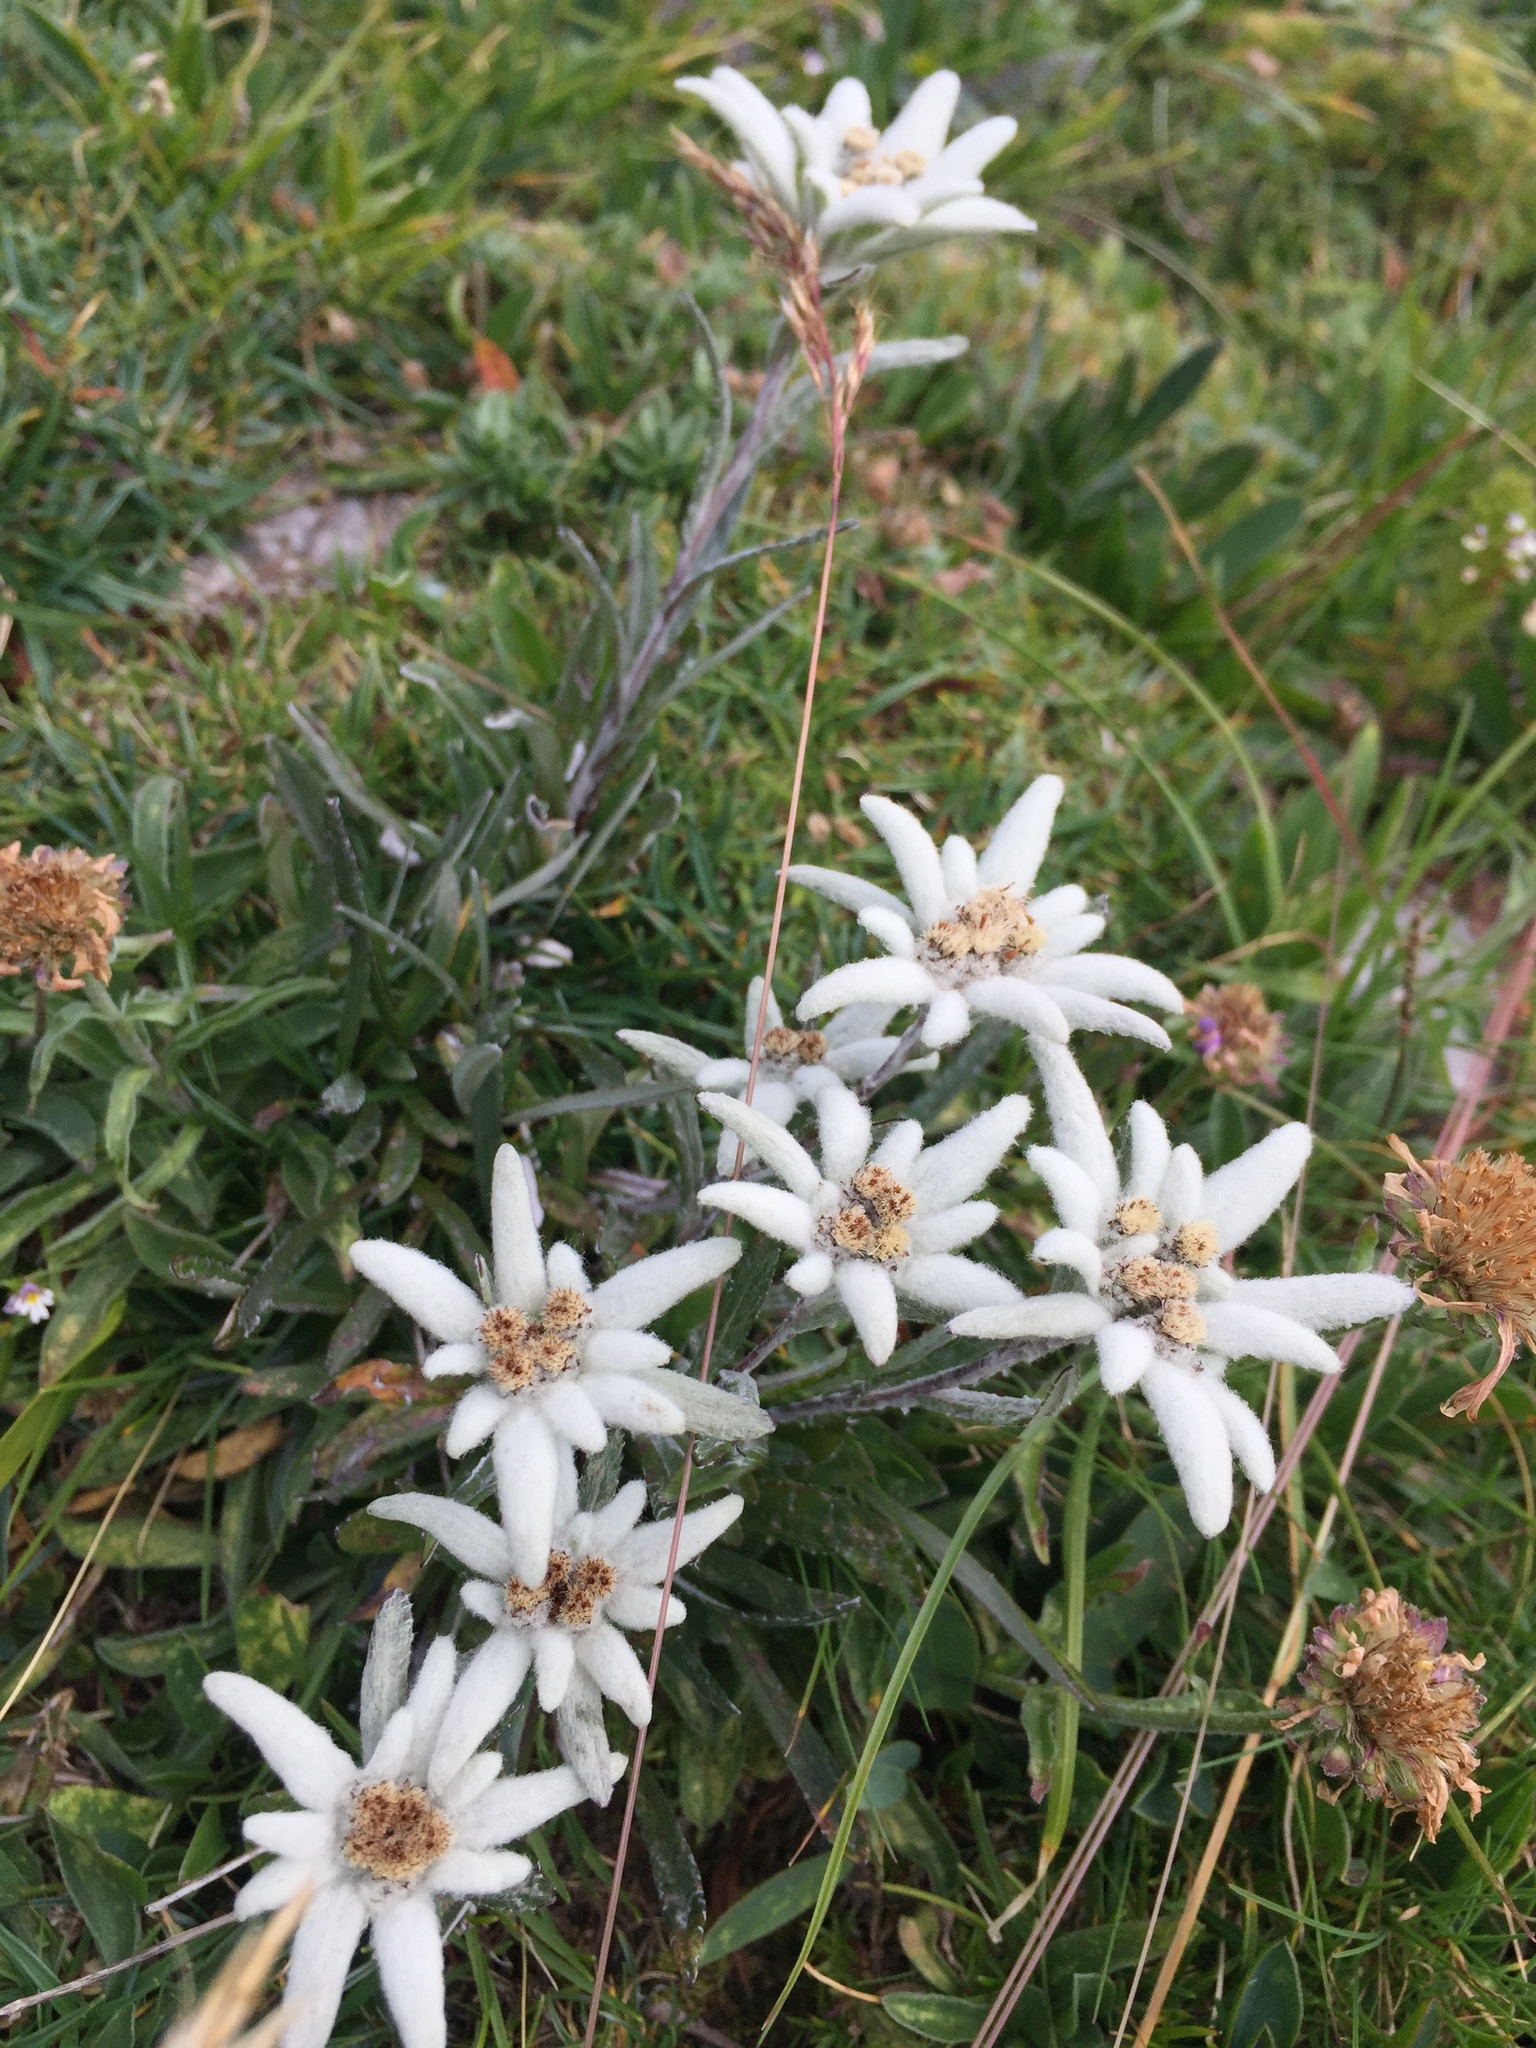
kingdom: Plantae
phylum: Tracheophyta
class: Magnoliopsida
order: Asterales
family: Asteraceae
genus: Leontopodium
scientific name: Leontopodium nivale
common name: Edelweiss
